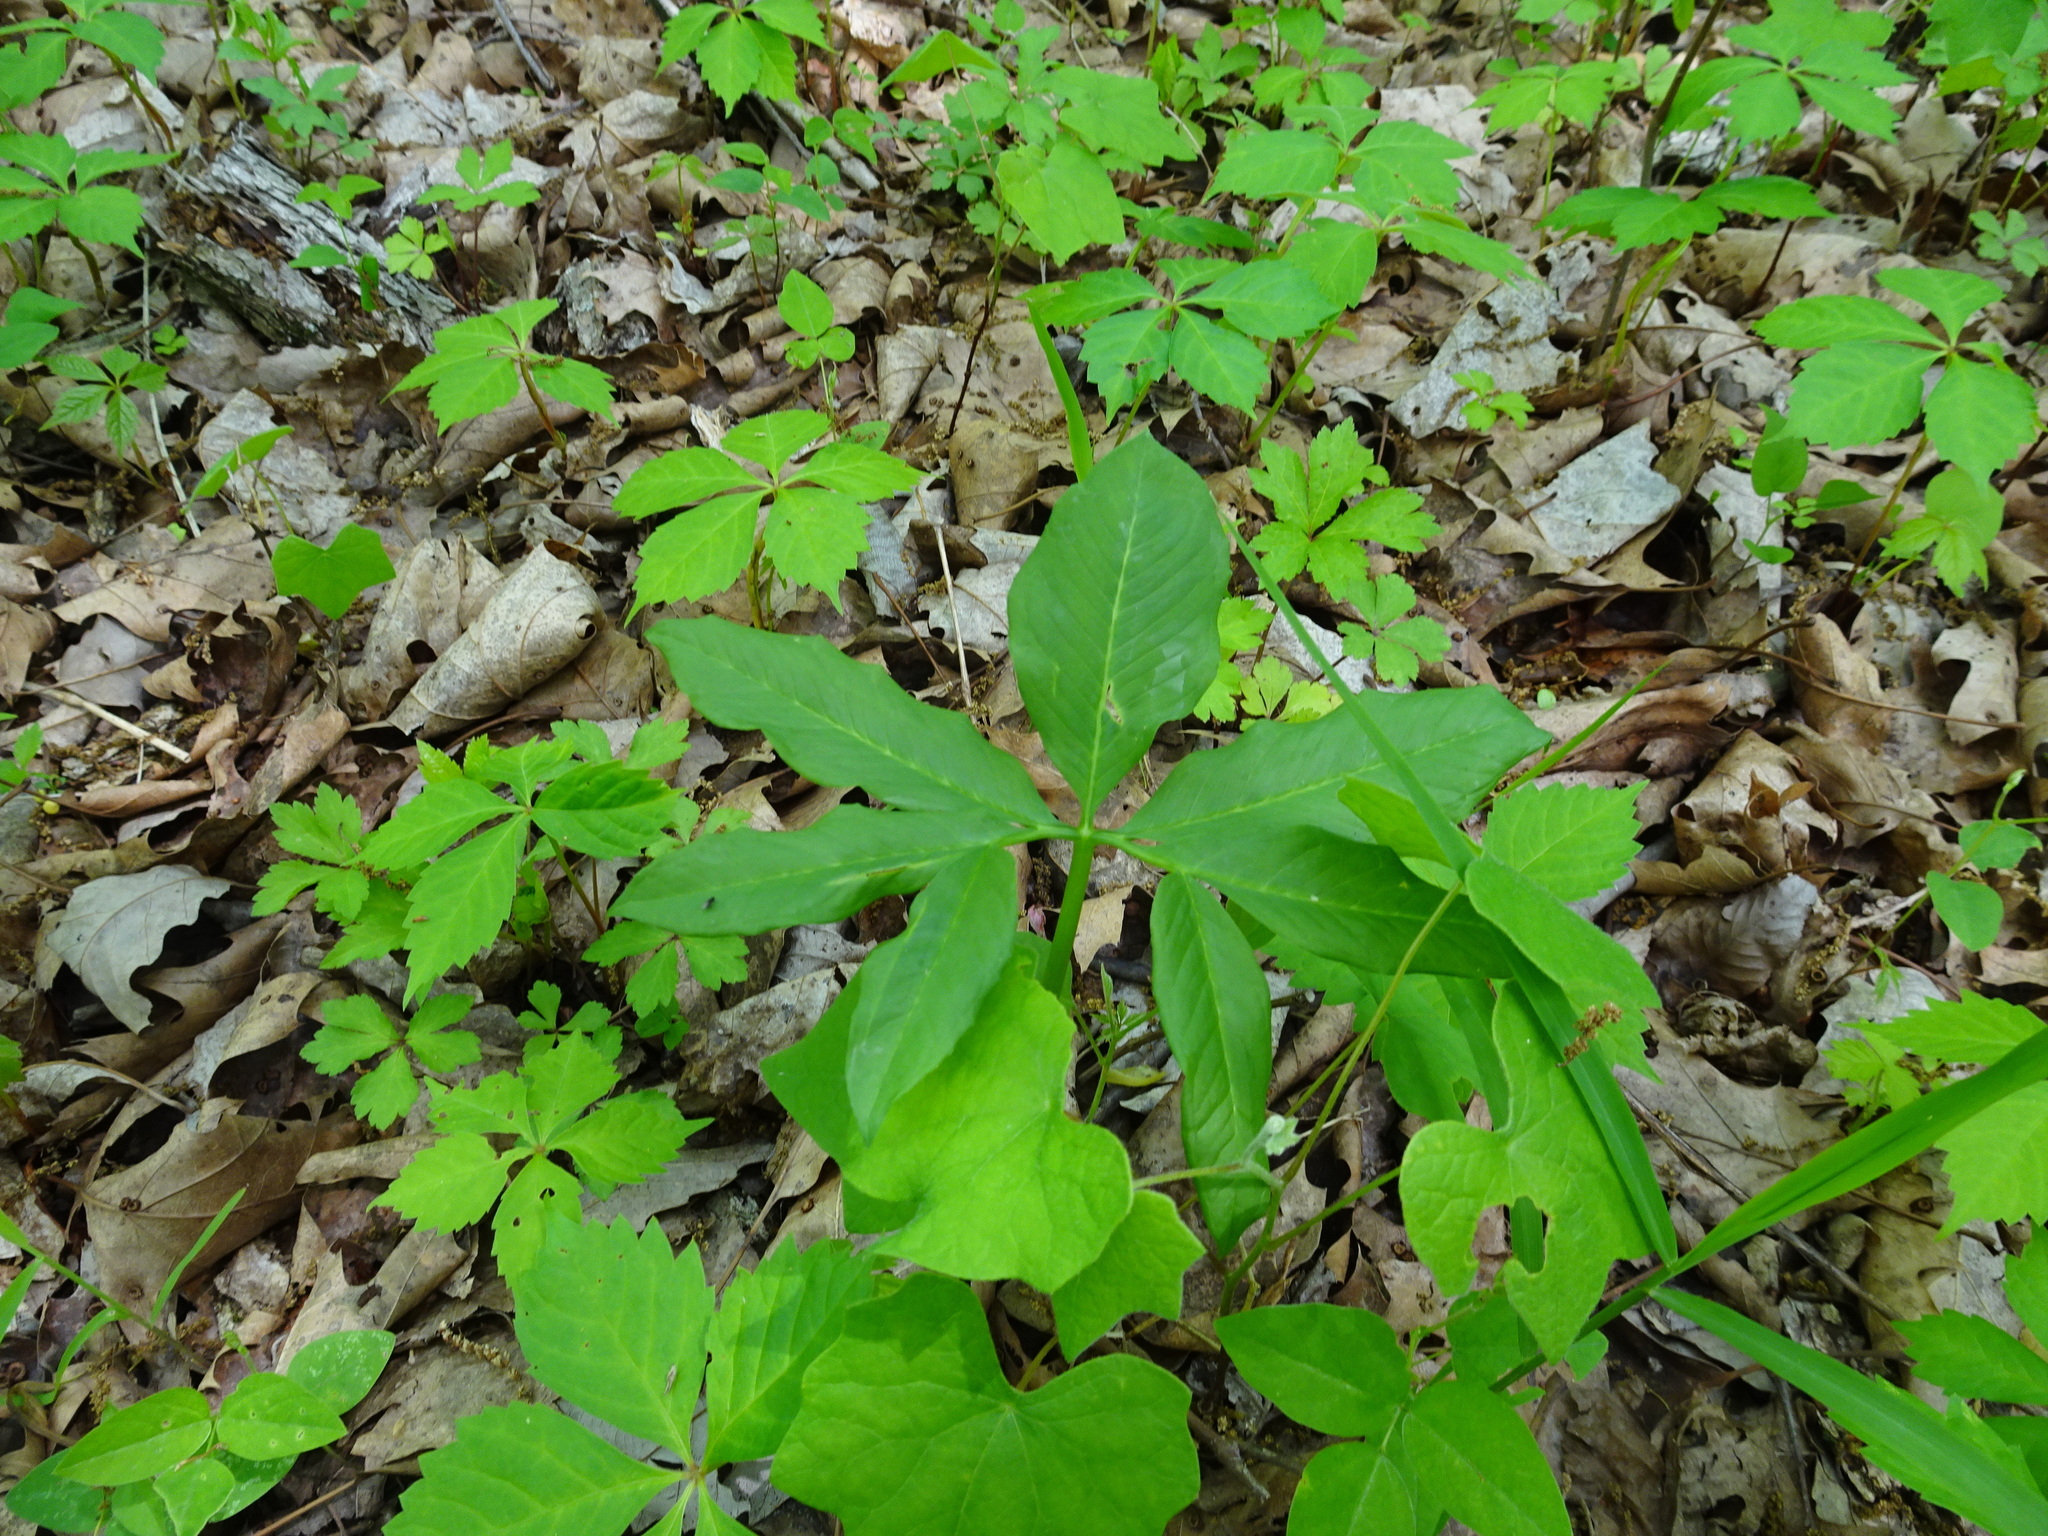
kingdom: Plantae
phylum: Tracheophyta
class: Liliopsida
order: Alismatales
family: Araceae
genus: Arisaema
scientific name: Arisaema dracontium
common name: Dragon-arum
